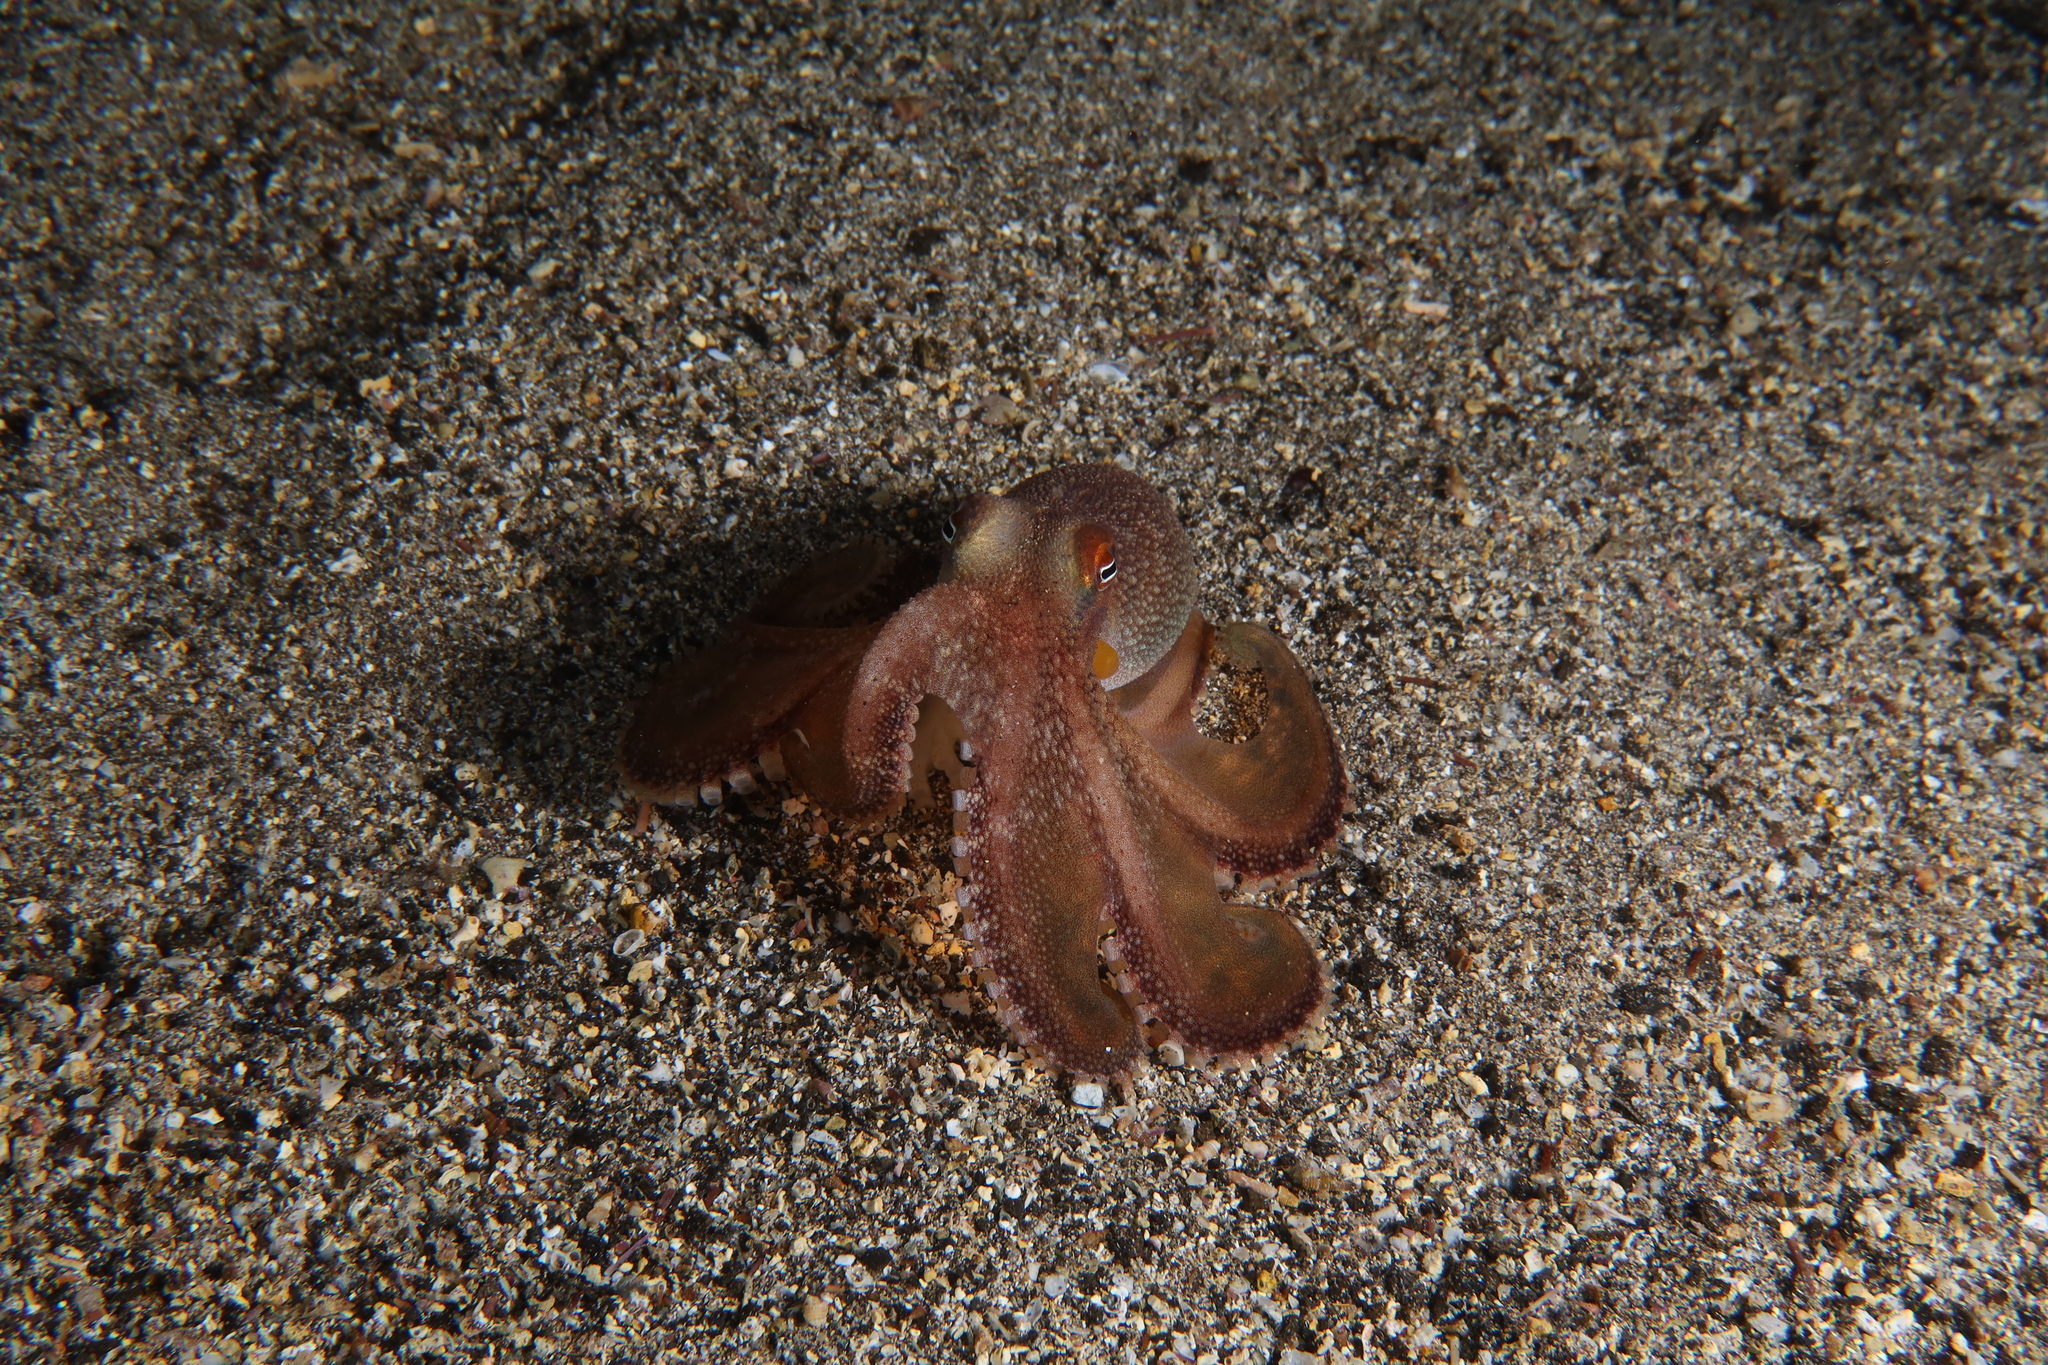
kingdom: Animalia
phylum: Mollusca
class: Cephalopoda
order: Octopoda
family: Octopodidae
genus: Amphioctopus
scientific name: Amphioctopus burryi
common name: Brownstripe octopus
